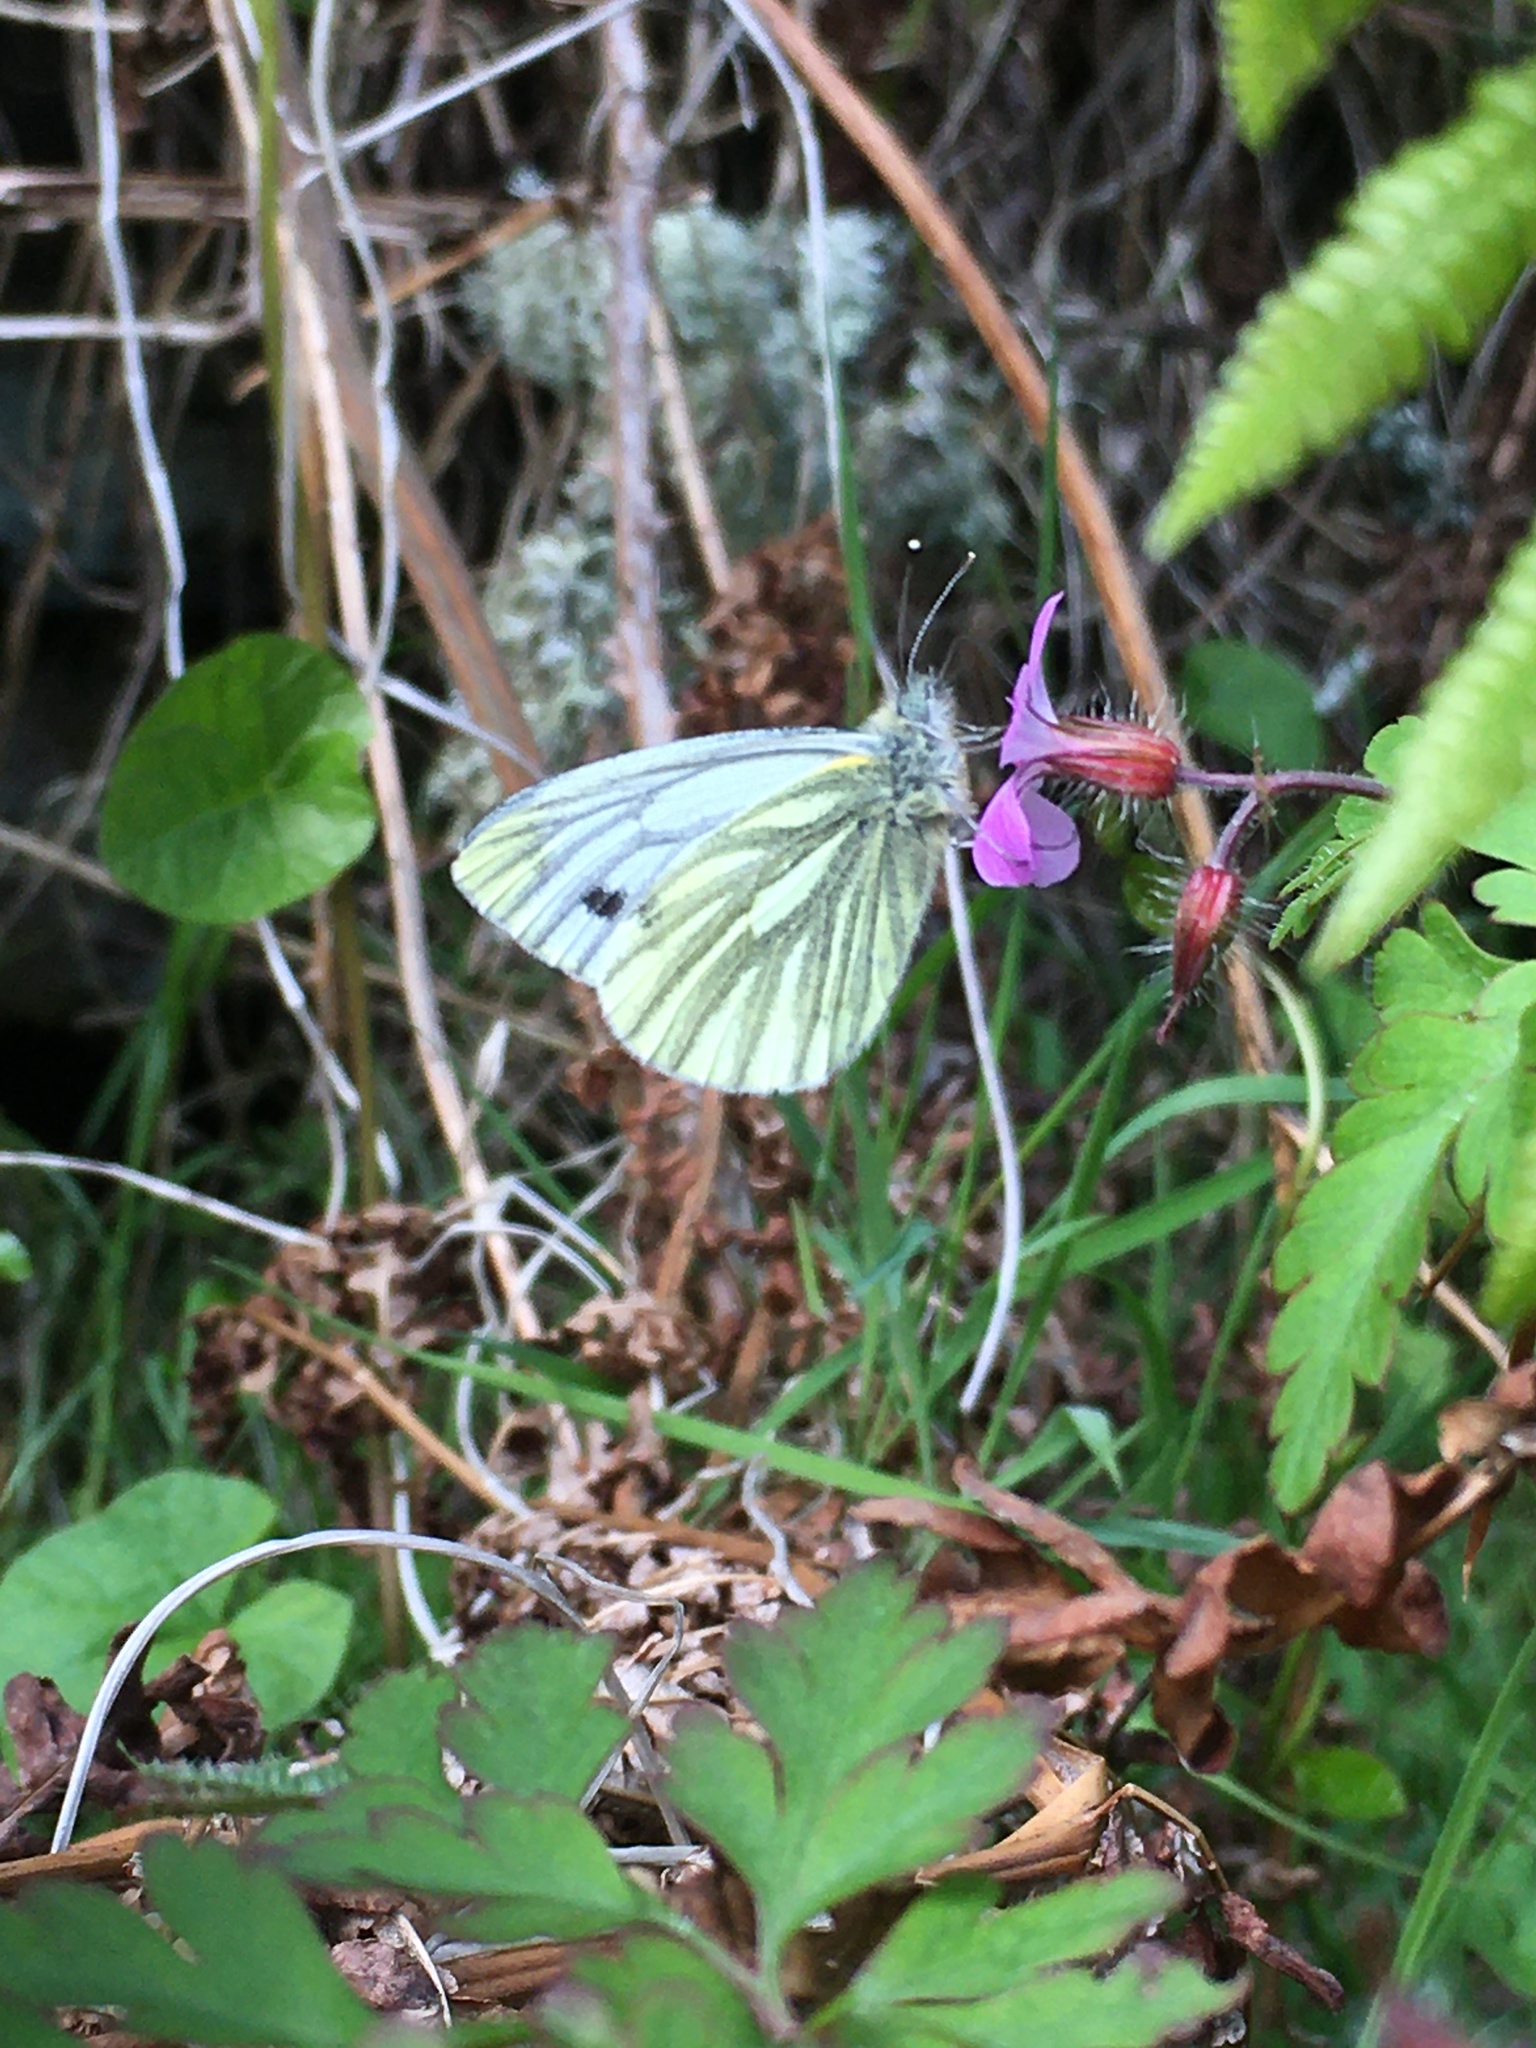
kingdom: Animalia
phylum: Arthropoda
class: Insecta
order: Lepidoptera
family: Pieridae
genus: Pieris
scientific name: Pieris napi
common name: Green-veined white
